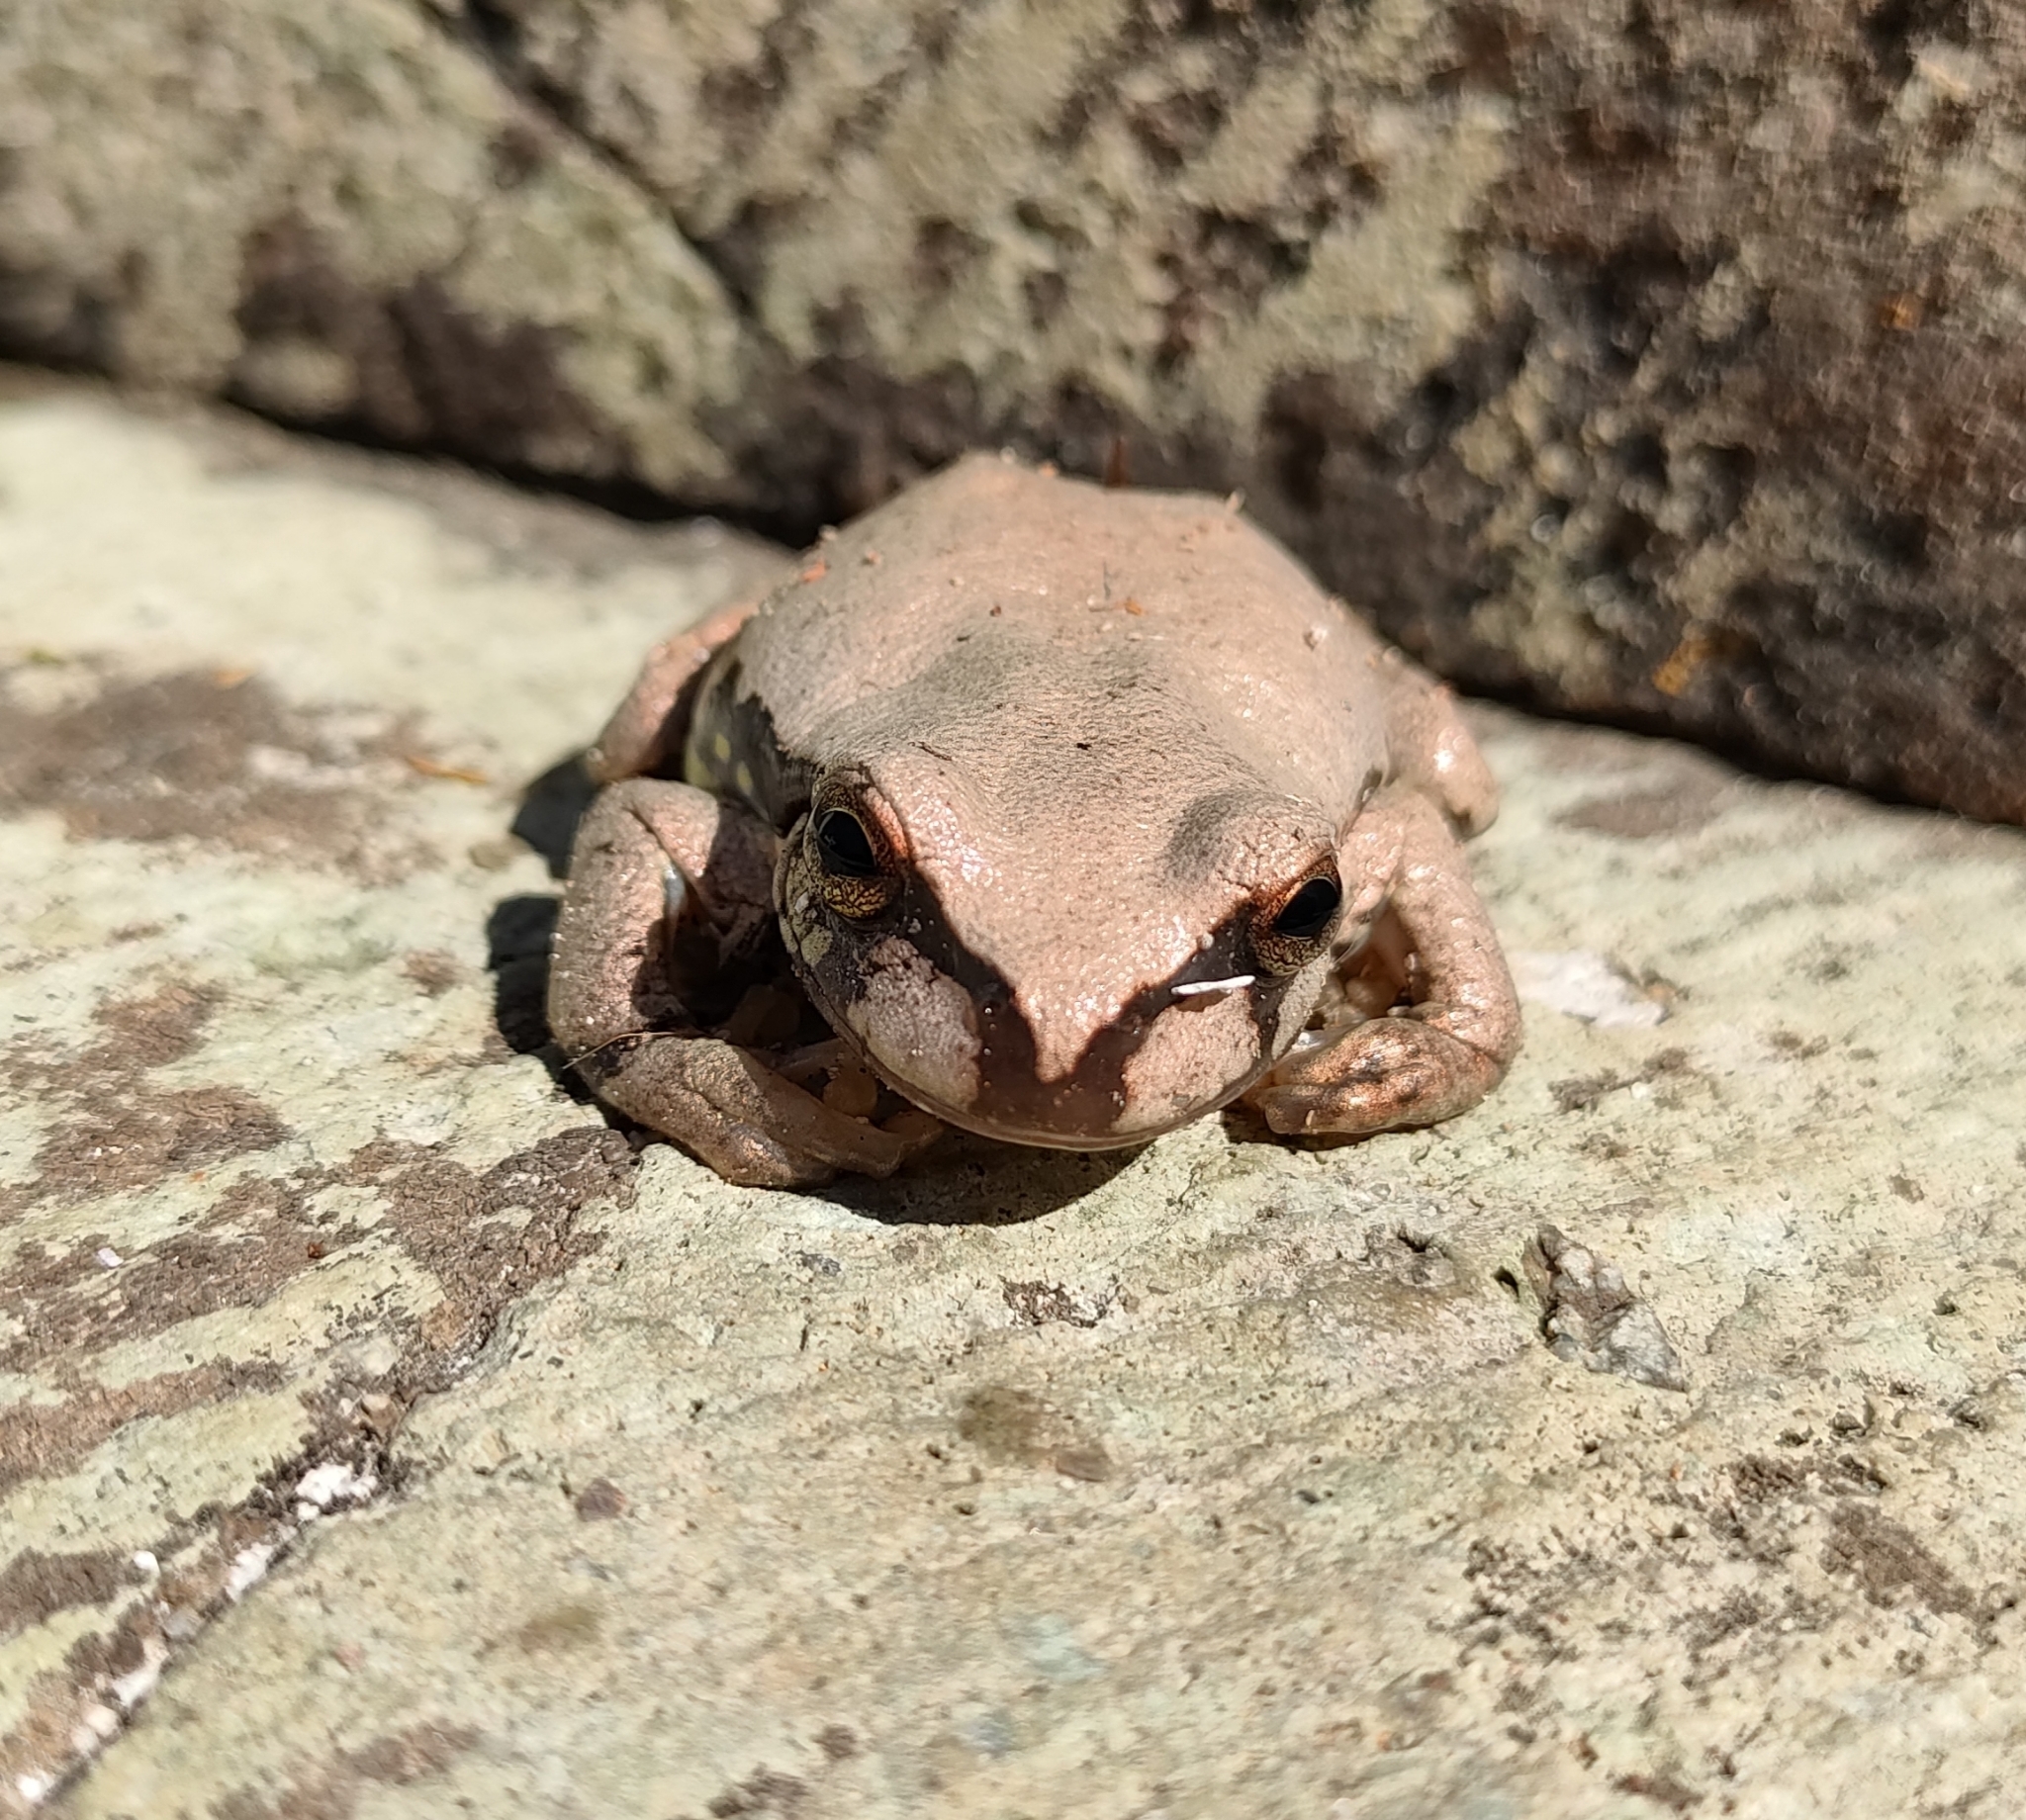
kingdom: Animalia
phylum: Chordata
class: Amphibia
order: Anura
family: Hylidae
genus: Sarcohyla
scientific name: Sarcohyla bistincta
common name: Cope’s streamside treefrog
